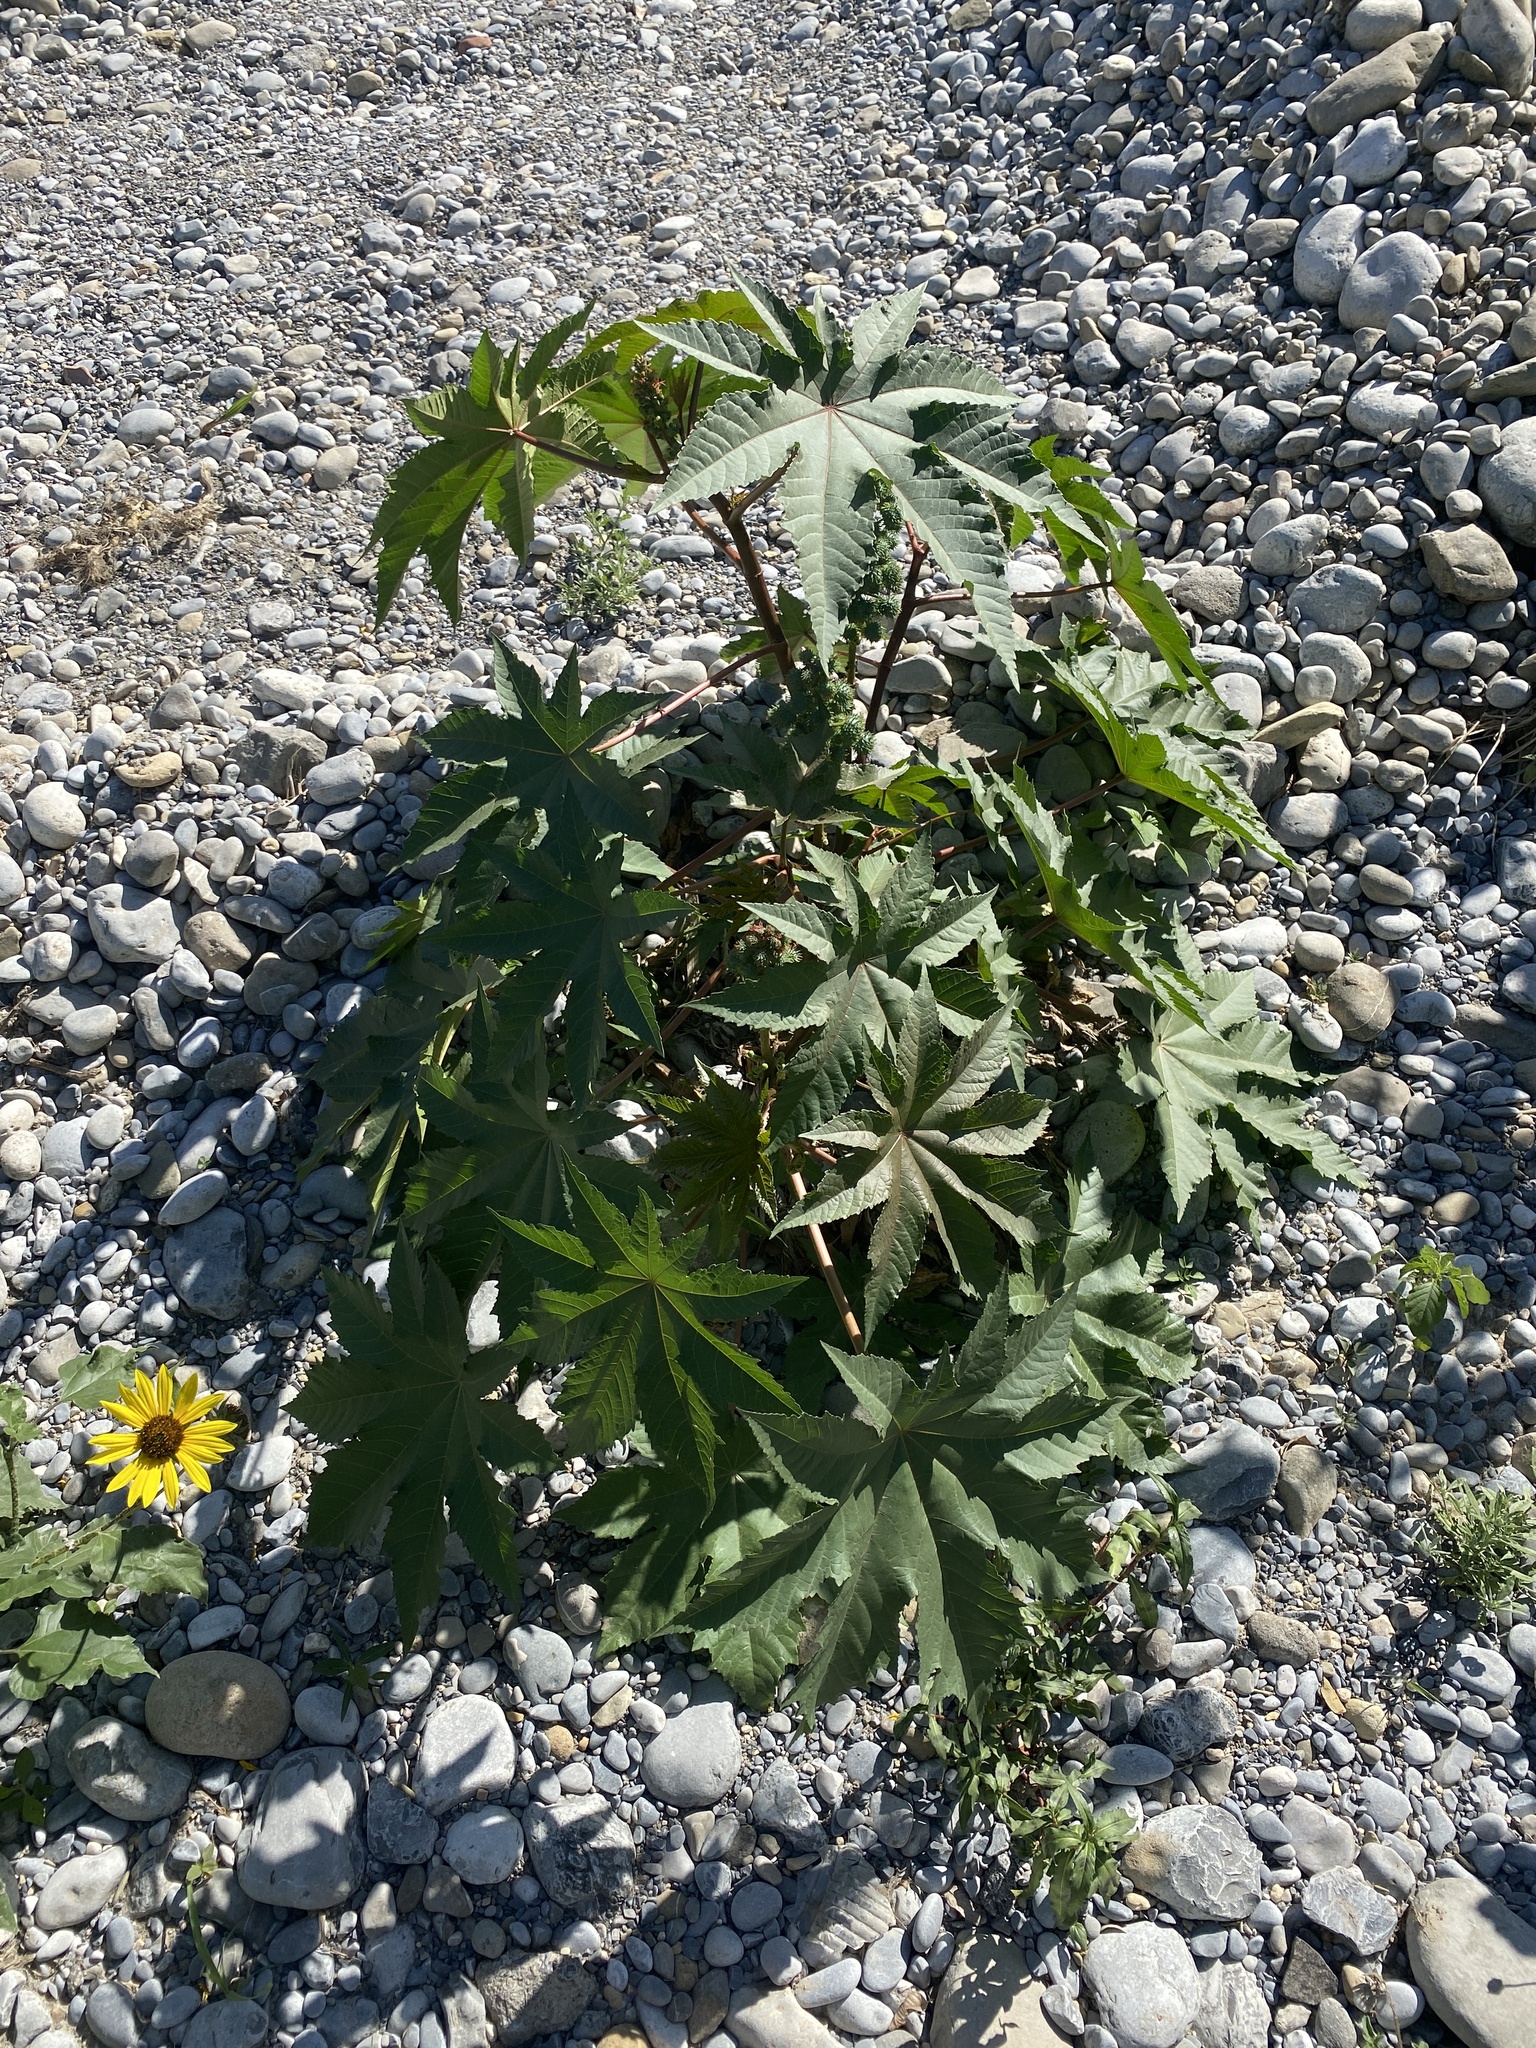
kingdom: Plantae
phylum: Tracheophyta
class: Magnoliopsida
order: Malpighiales
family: Euphorbiaceae
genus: Ricinus
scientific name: Ricinus communis
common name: Castor-oil-plant
